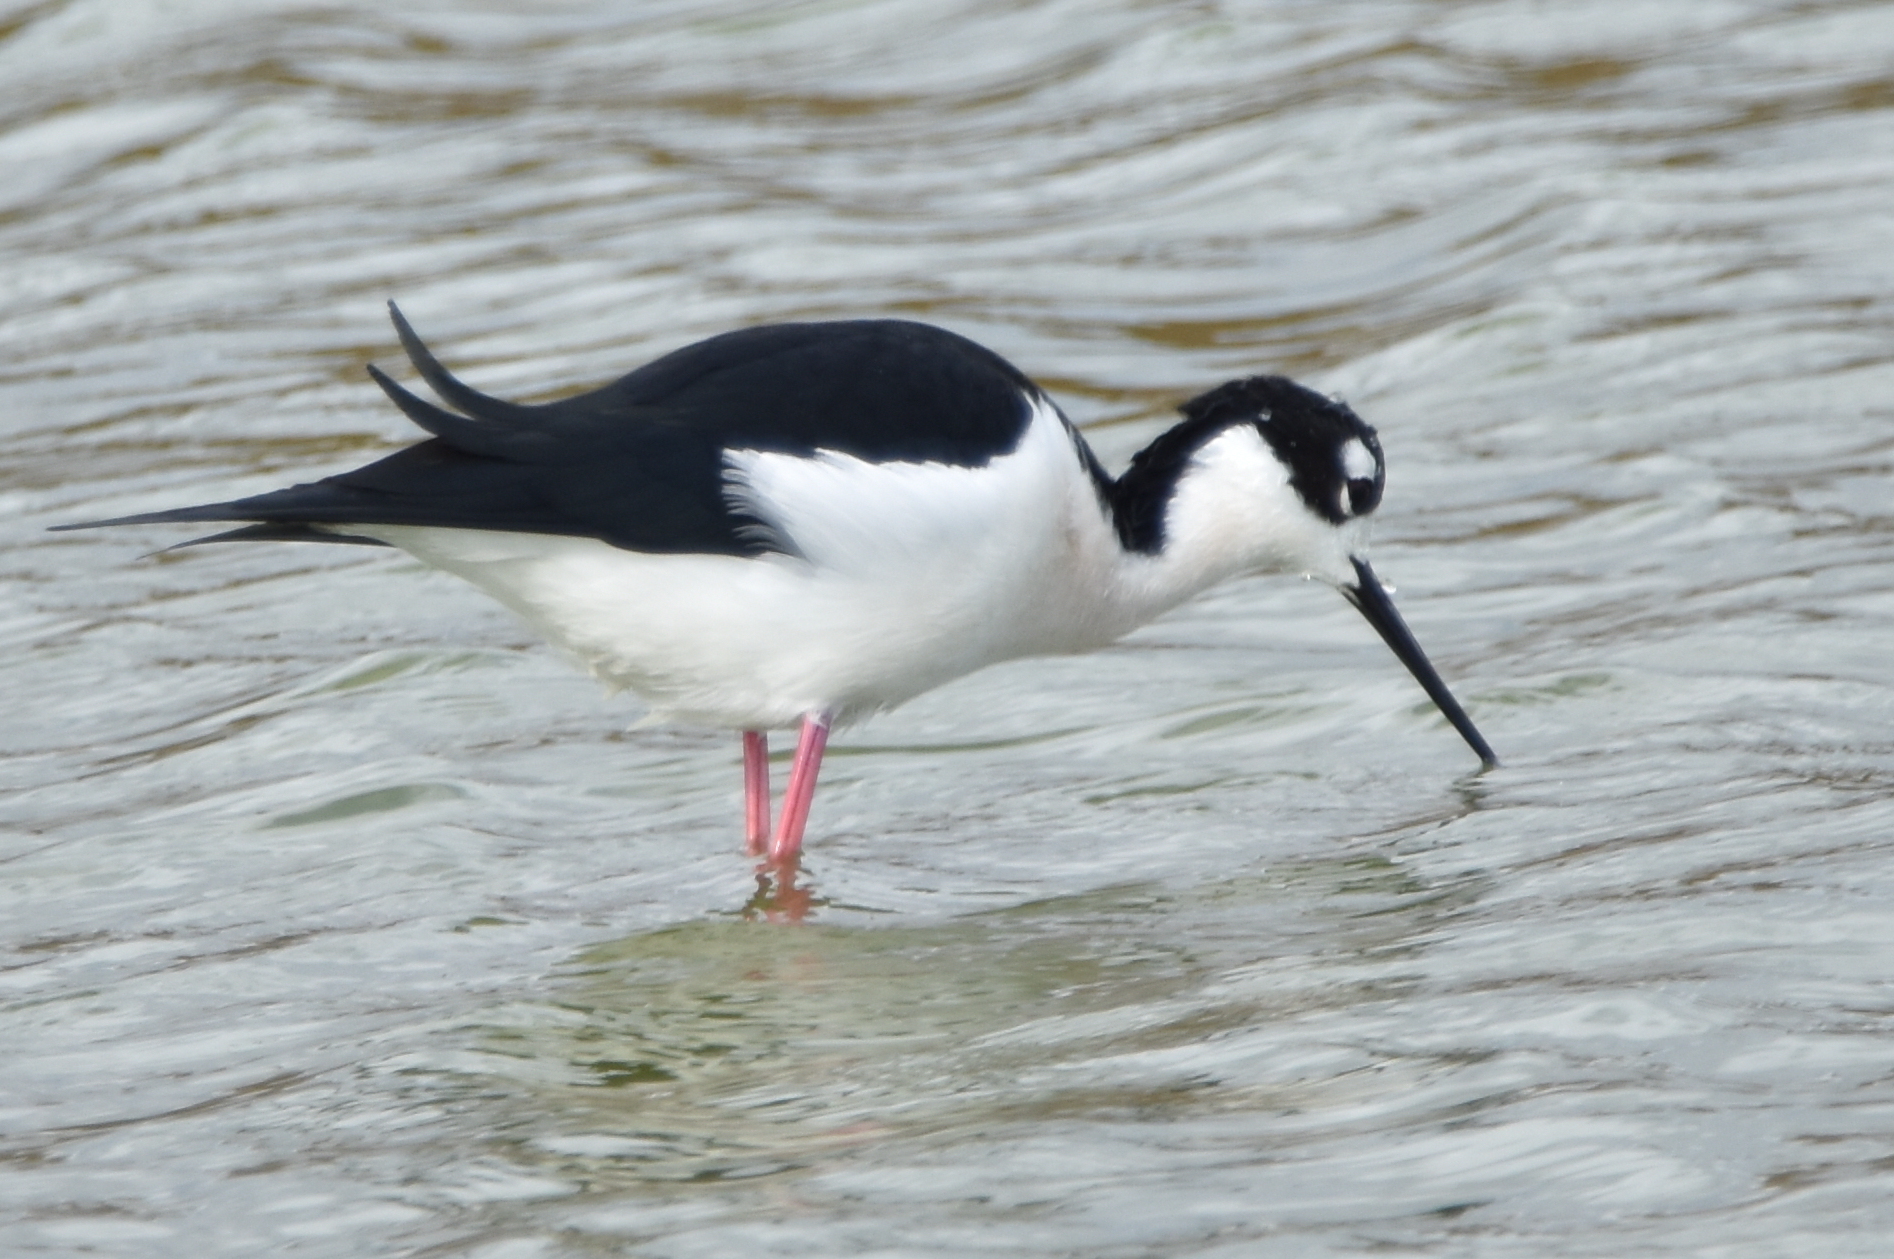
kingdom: Animalia
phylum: Chordata
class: Aves
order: Charadriiformes
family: Recurvirostridae
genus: Himantopus
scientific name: Himantopus mexicanus
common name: Black-necked stilt
